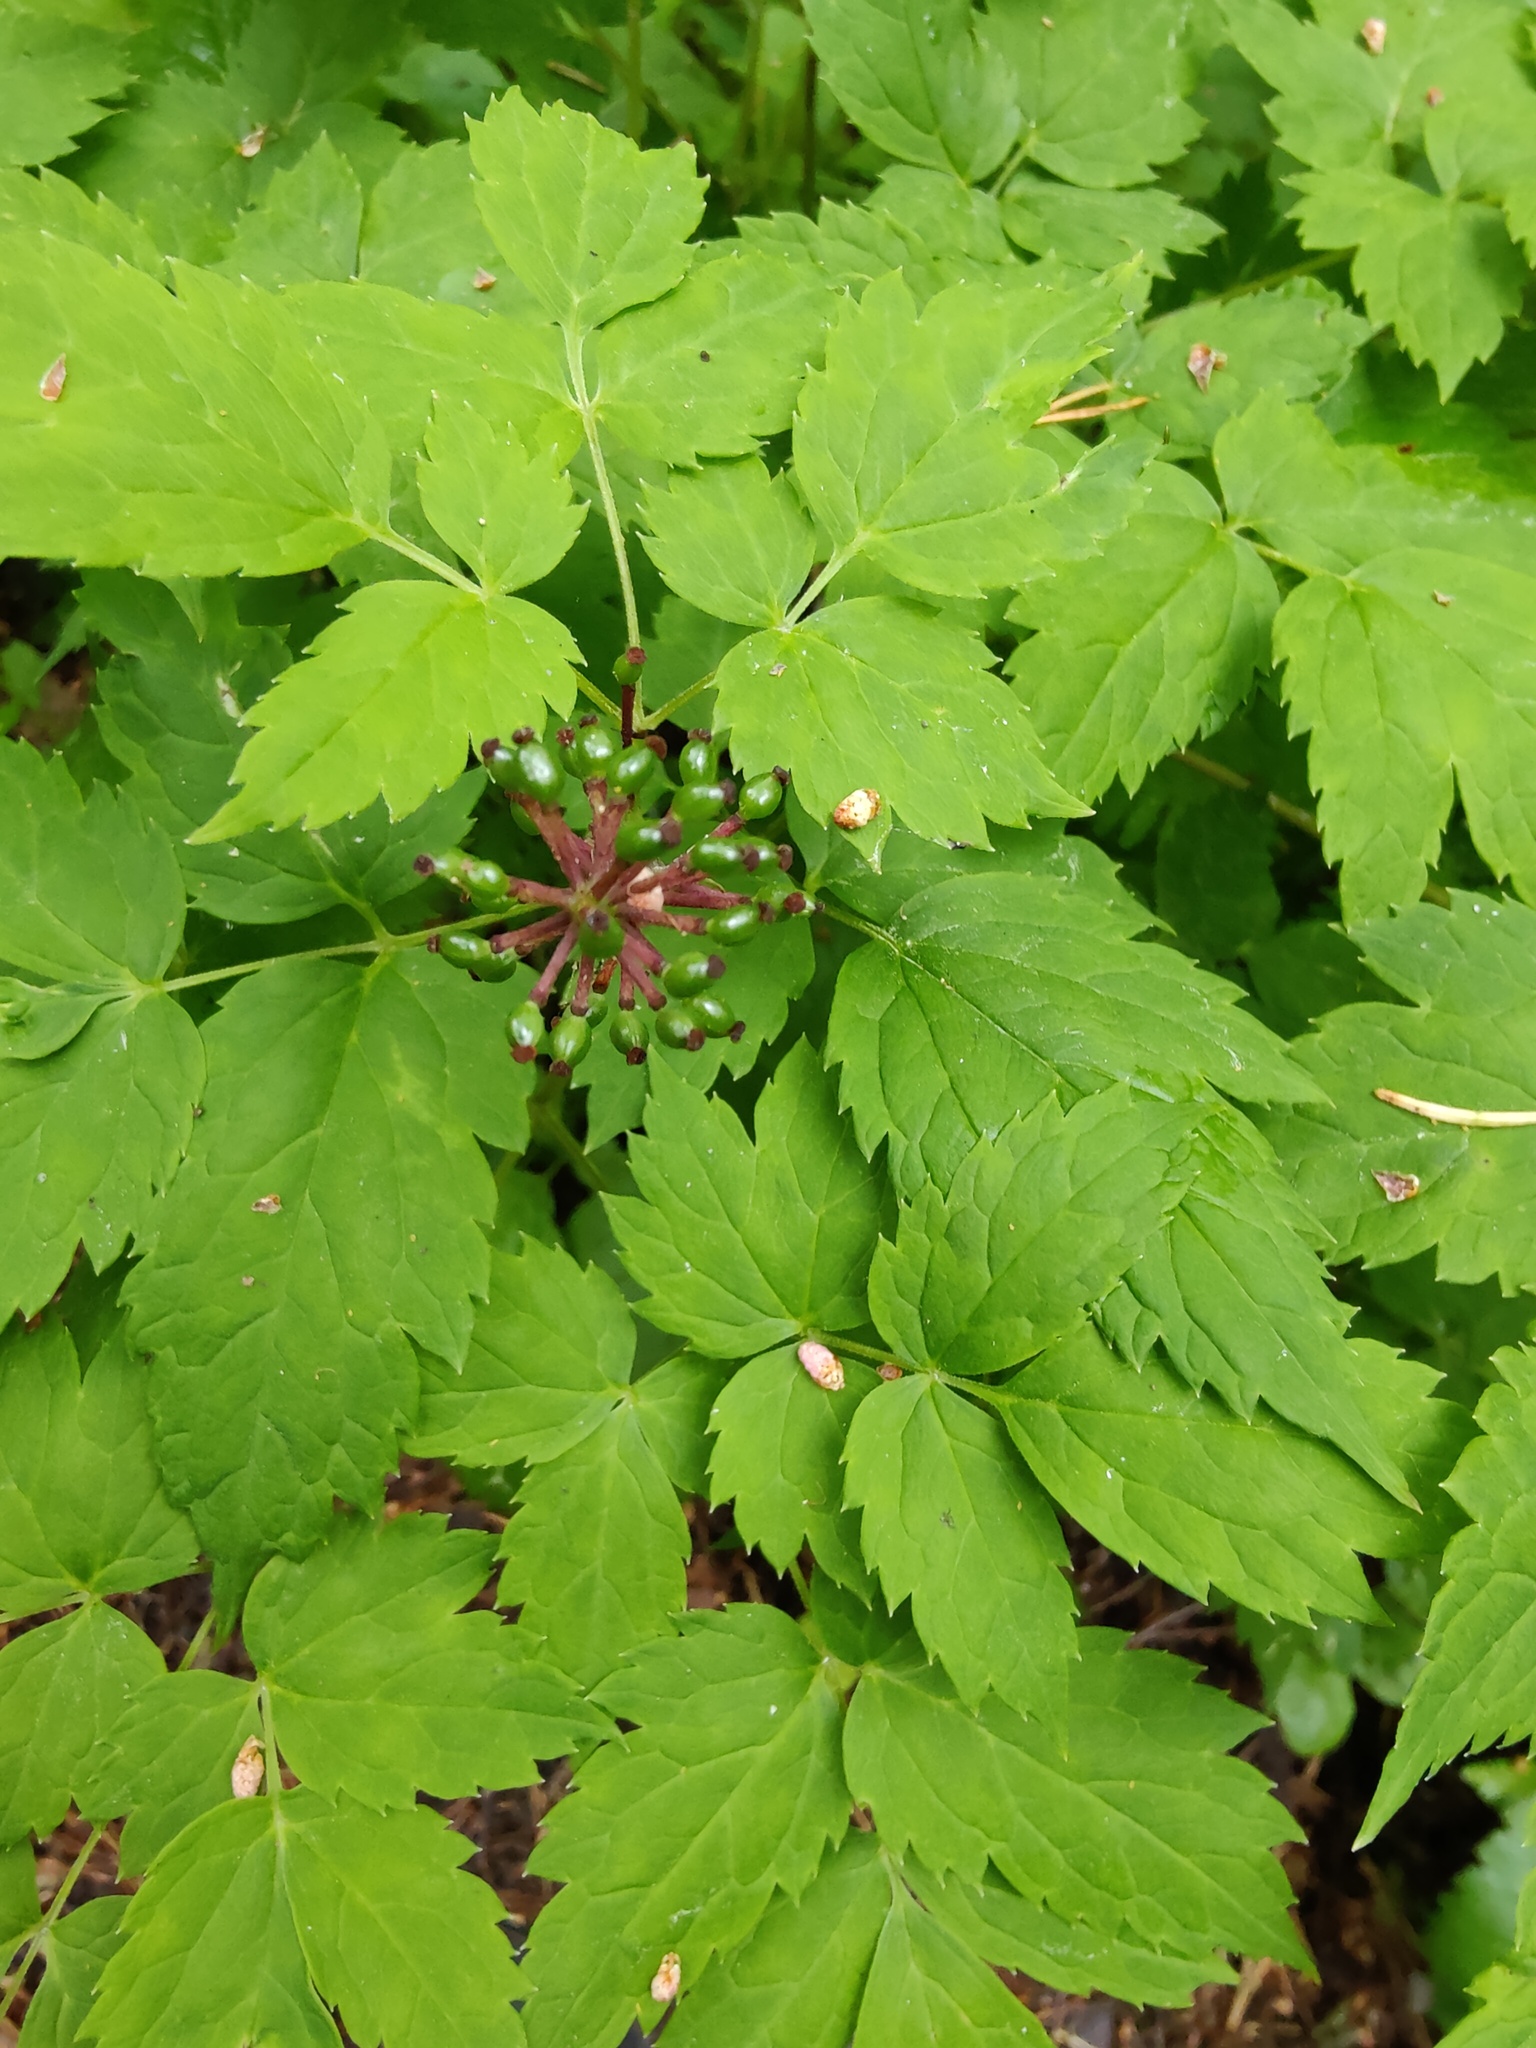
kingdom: Plantae
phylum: Tracheophyta
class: Magnoliopsida
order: Ranunculales
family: Ranunculaceae
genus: Actaea
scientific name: Actaea spicata
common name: Baneberry
